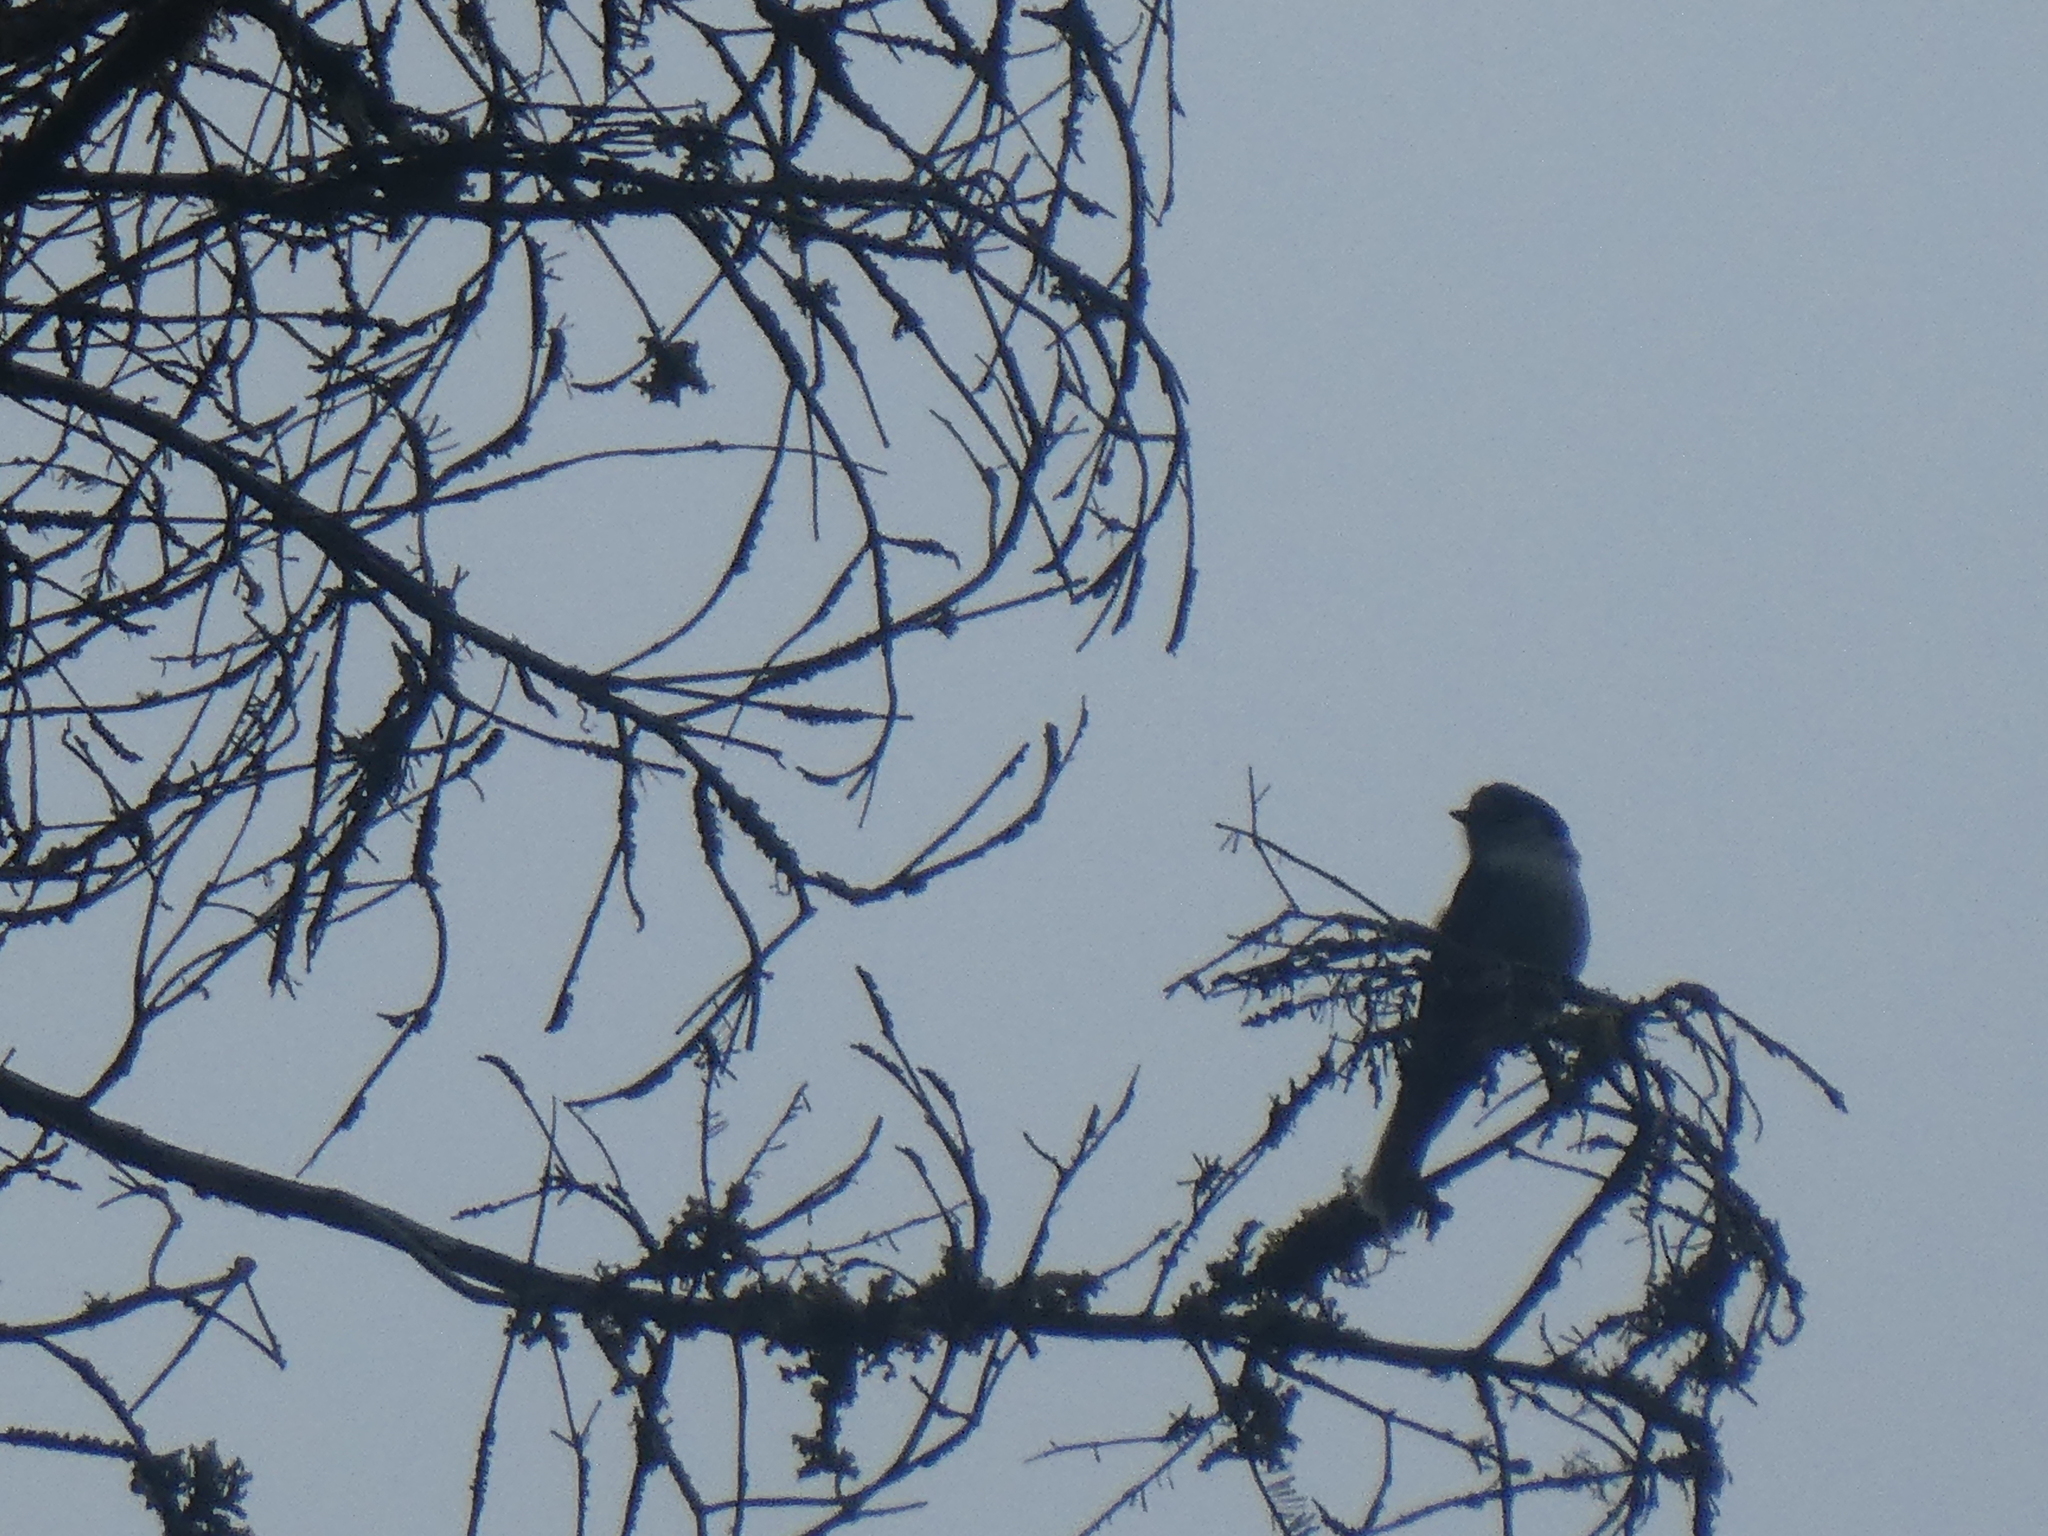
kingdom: Animalia
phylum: Chordata
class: Aves
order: Passeriformes
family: Corvidae
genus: Perisoreus
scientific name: Perisoreus canadensis
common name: Gray jay
